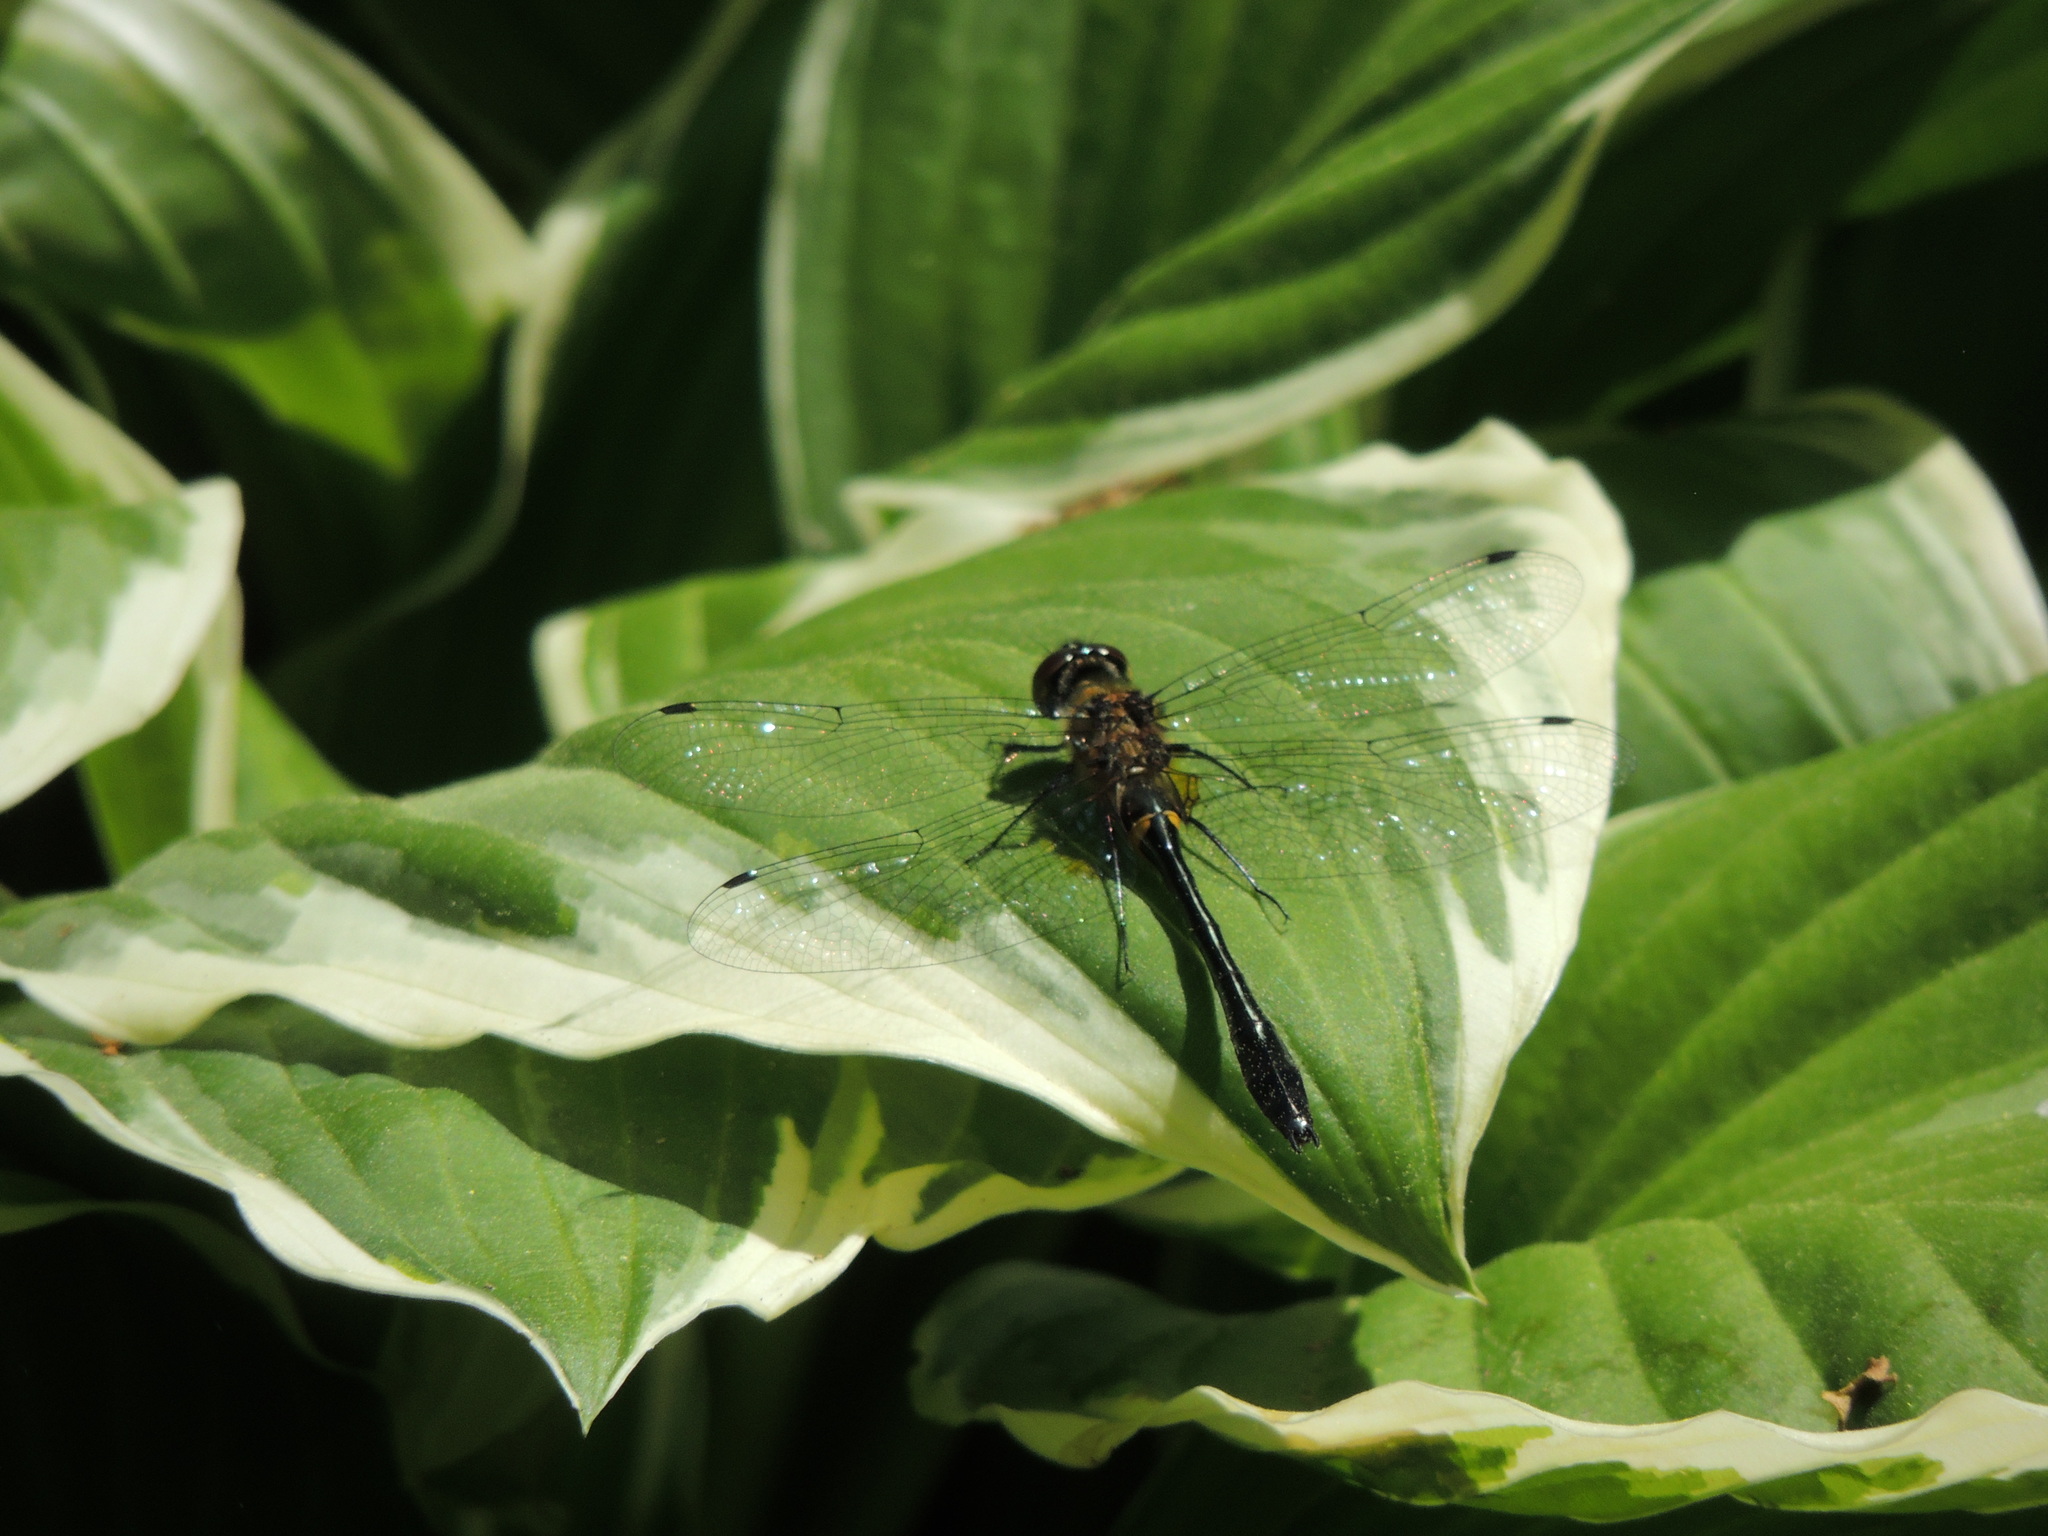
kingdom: Animalia
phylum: Arthropoda
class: Insecta
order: Odonata
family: Corduliidae
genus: Dorocordulia
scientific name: Dorocordulia libera
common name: Racket-tailed emerald
